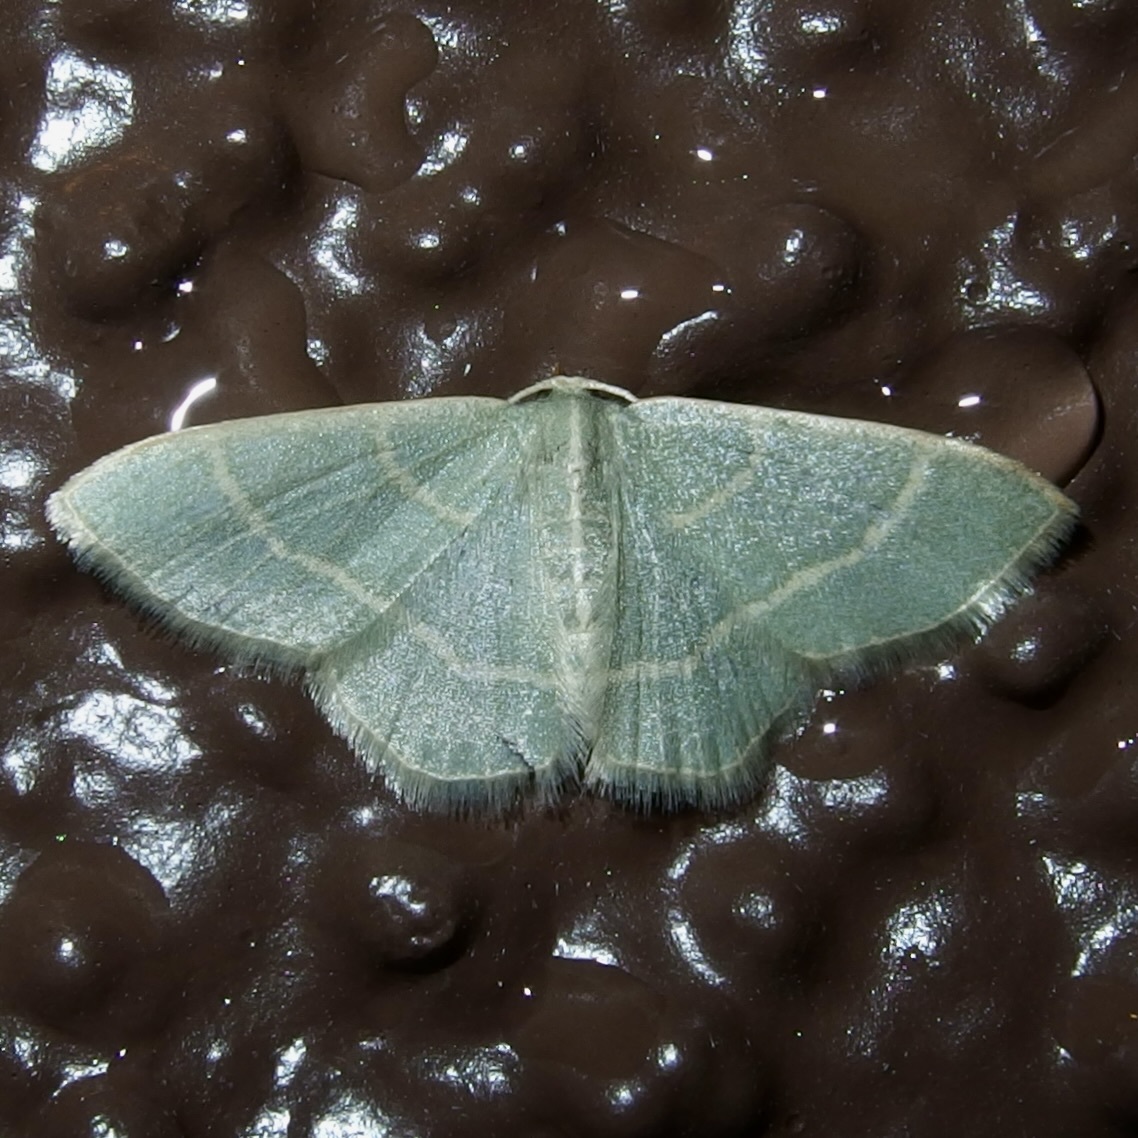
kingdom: Animalia
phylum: Arthropoda
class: Insecta
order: Lepidoptera
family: Geometridae
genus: Chlorochlamys
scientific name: Chlorochlamys appellaria
